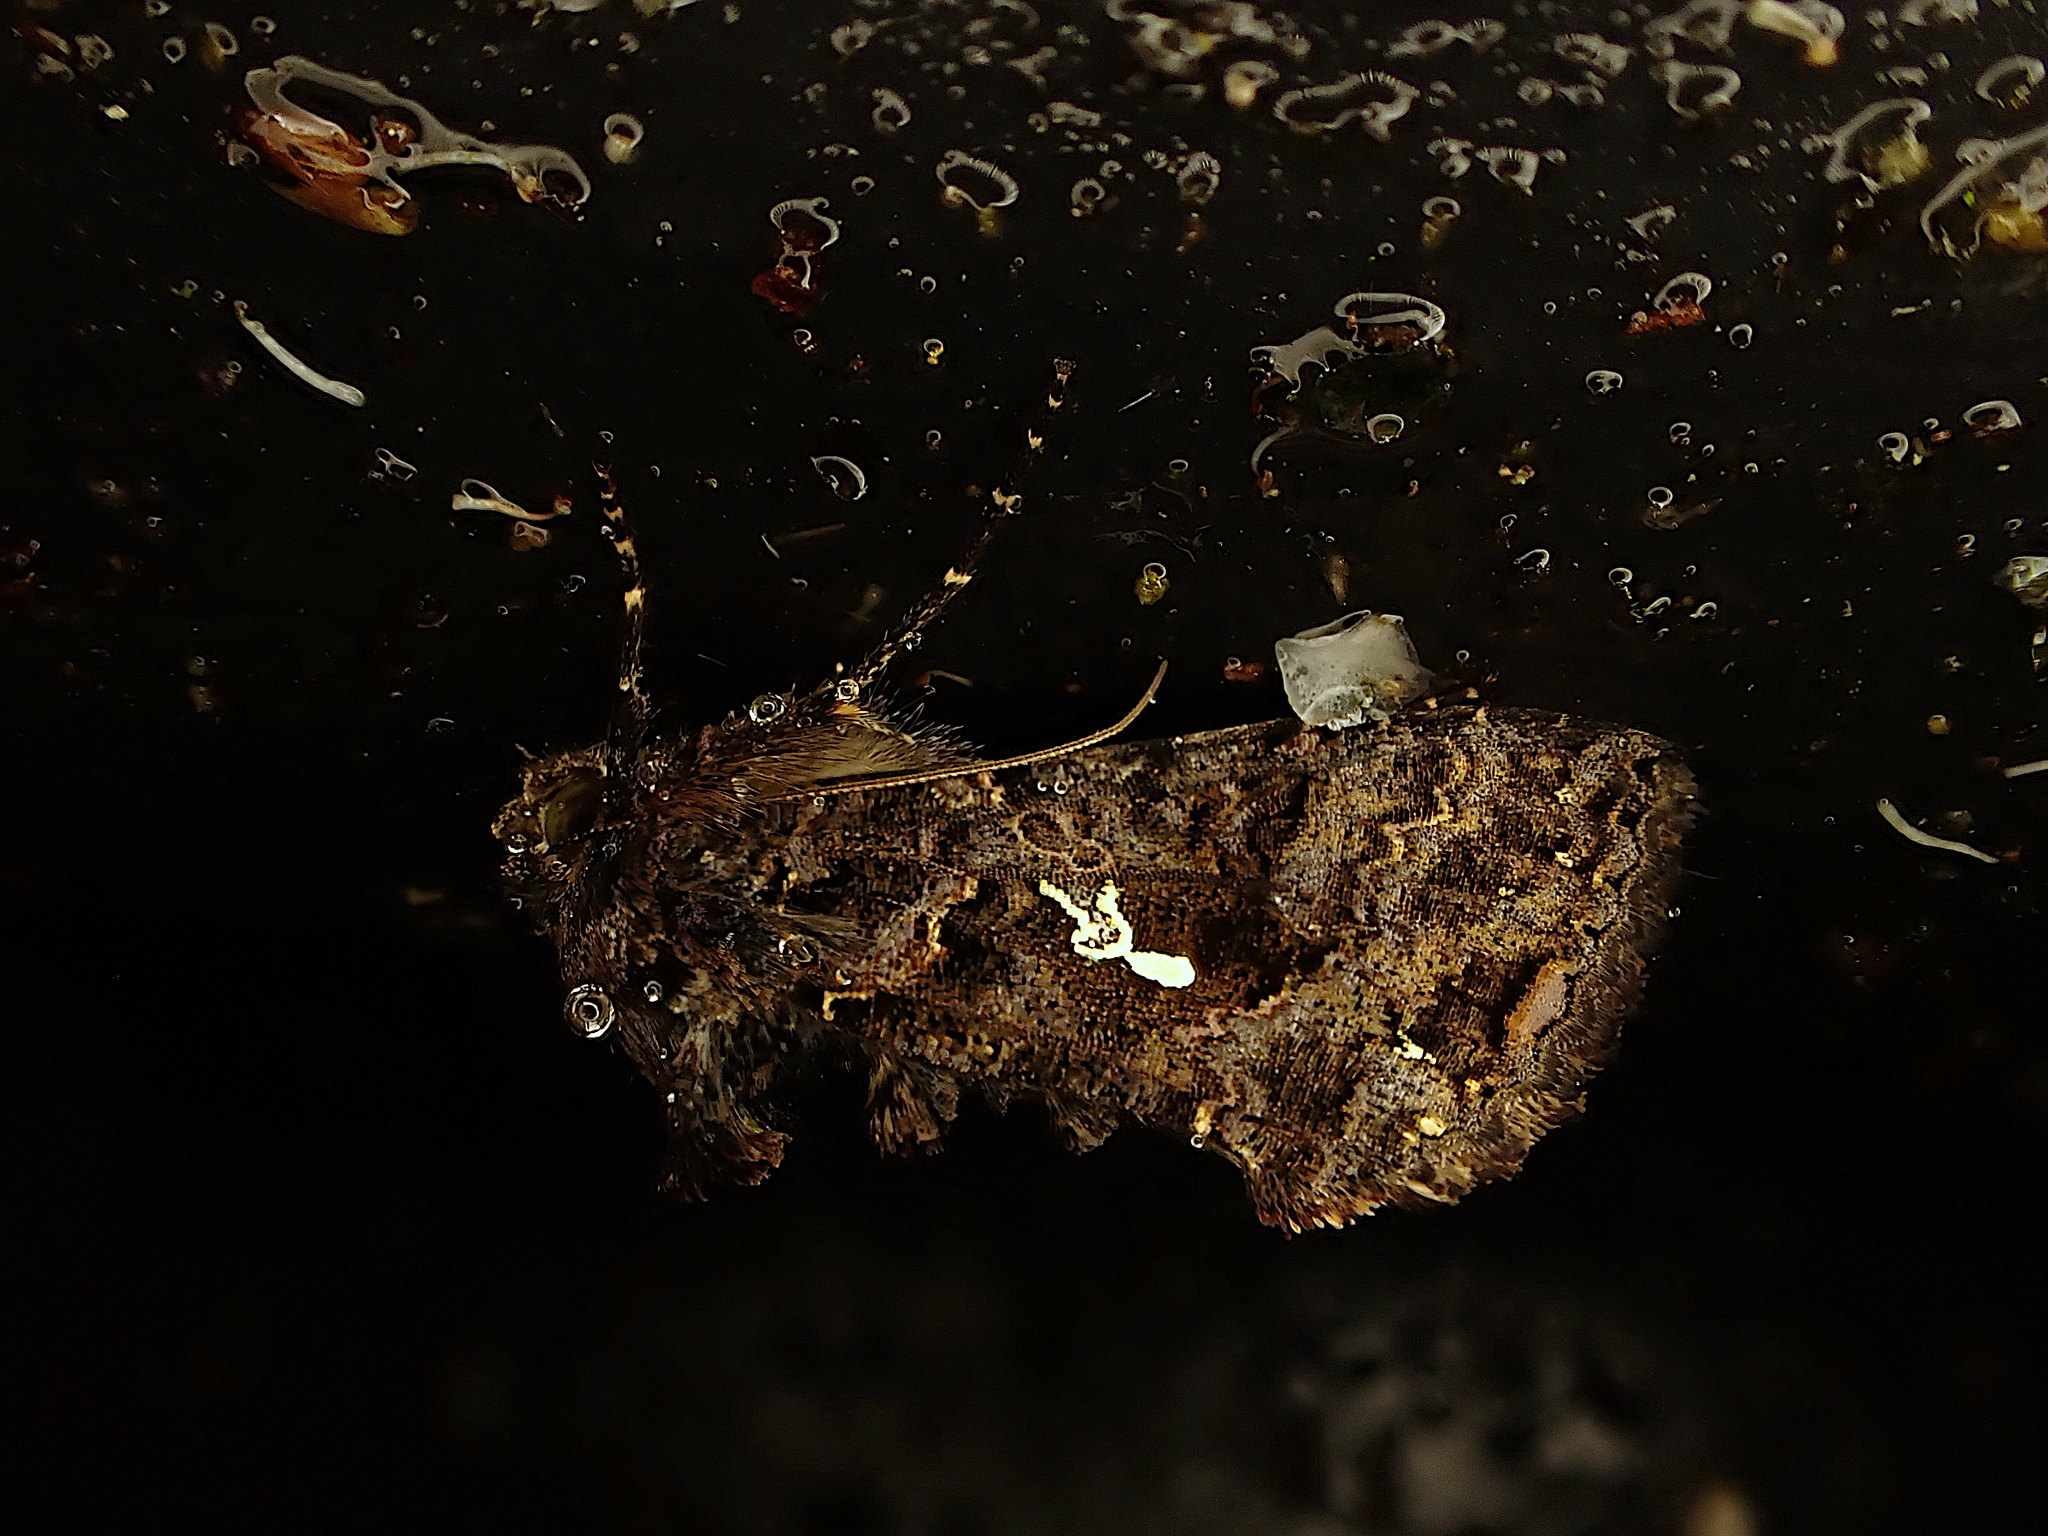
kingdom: Animalia
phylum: Arthropoda
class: Insecta
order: Lepidoptera
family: Noctuidae
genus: Ctenoplusia
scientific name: Ctenoplusia limbirena
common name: Scar bank gem
